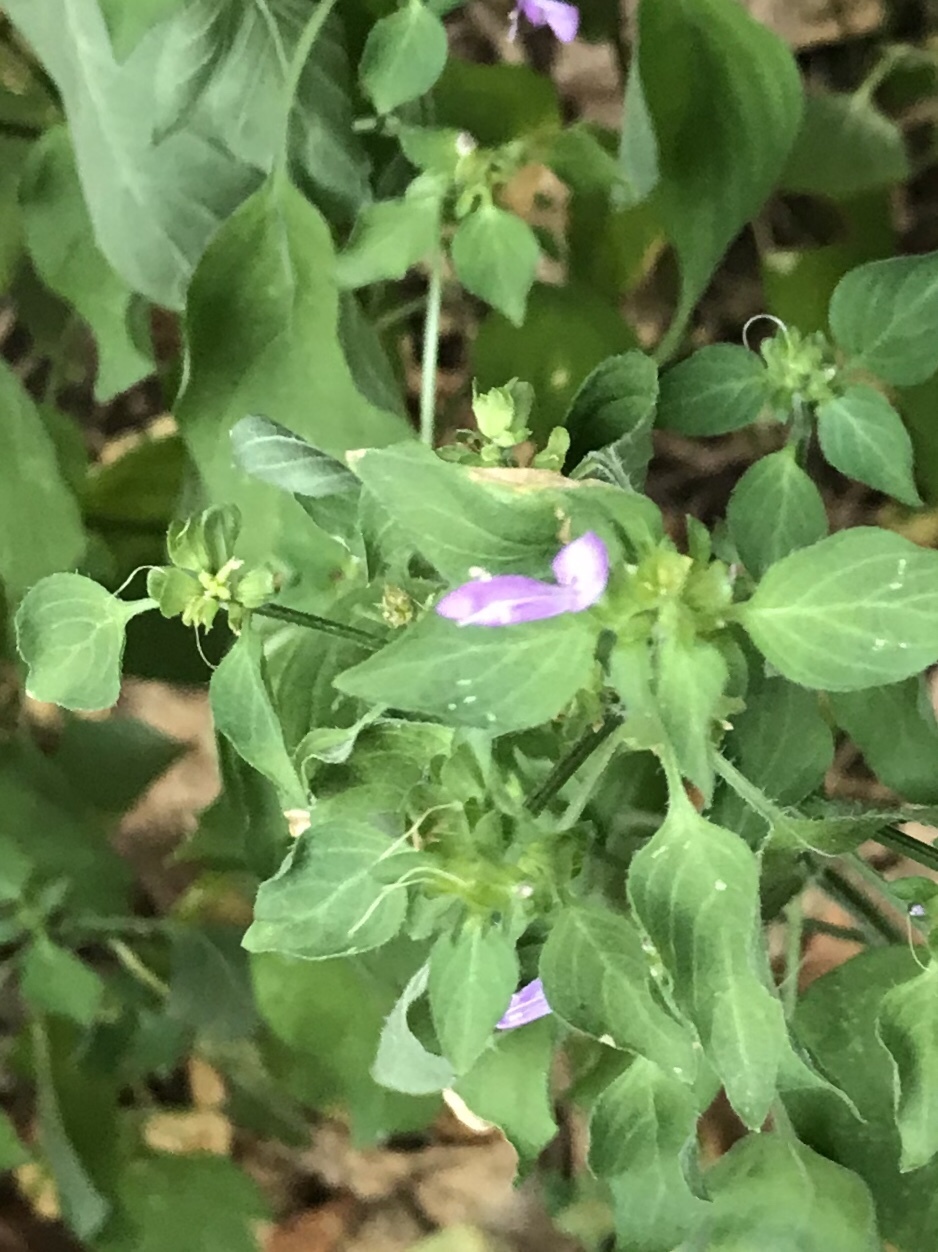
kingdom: Plantae
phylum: Tracheophyta
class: Magnoliopsida
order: Lamiales
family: Acanthaceae
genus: Dicliptera
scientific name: Dicliptera brachiata
